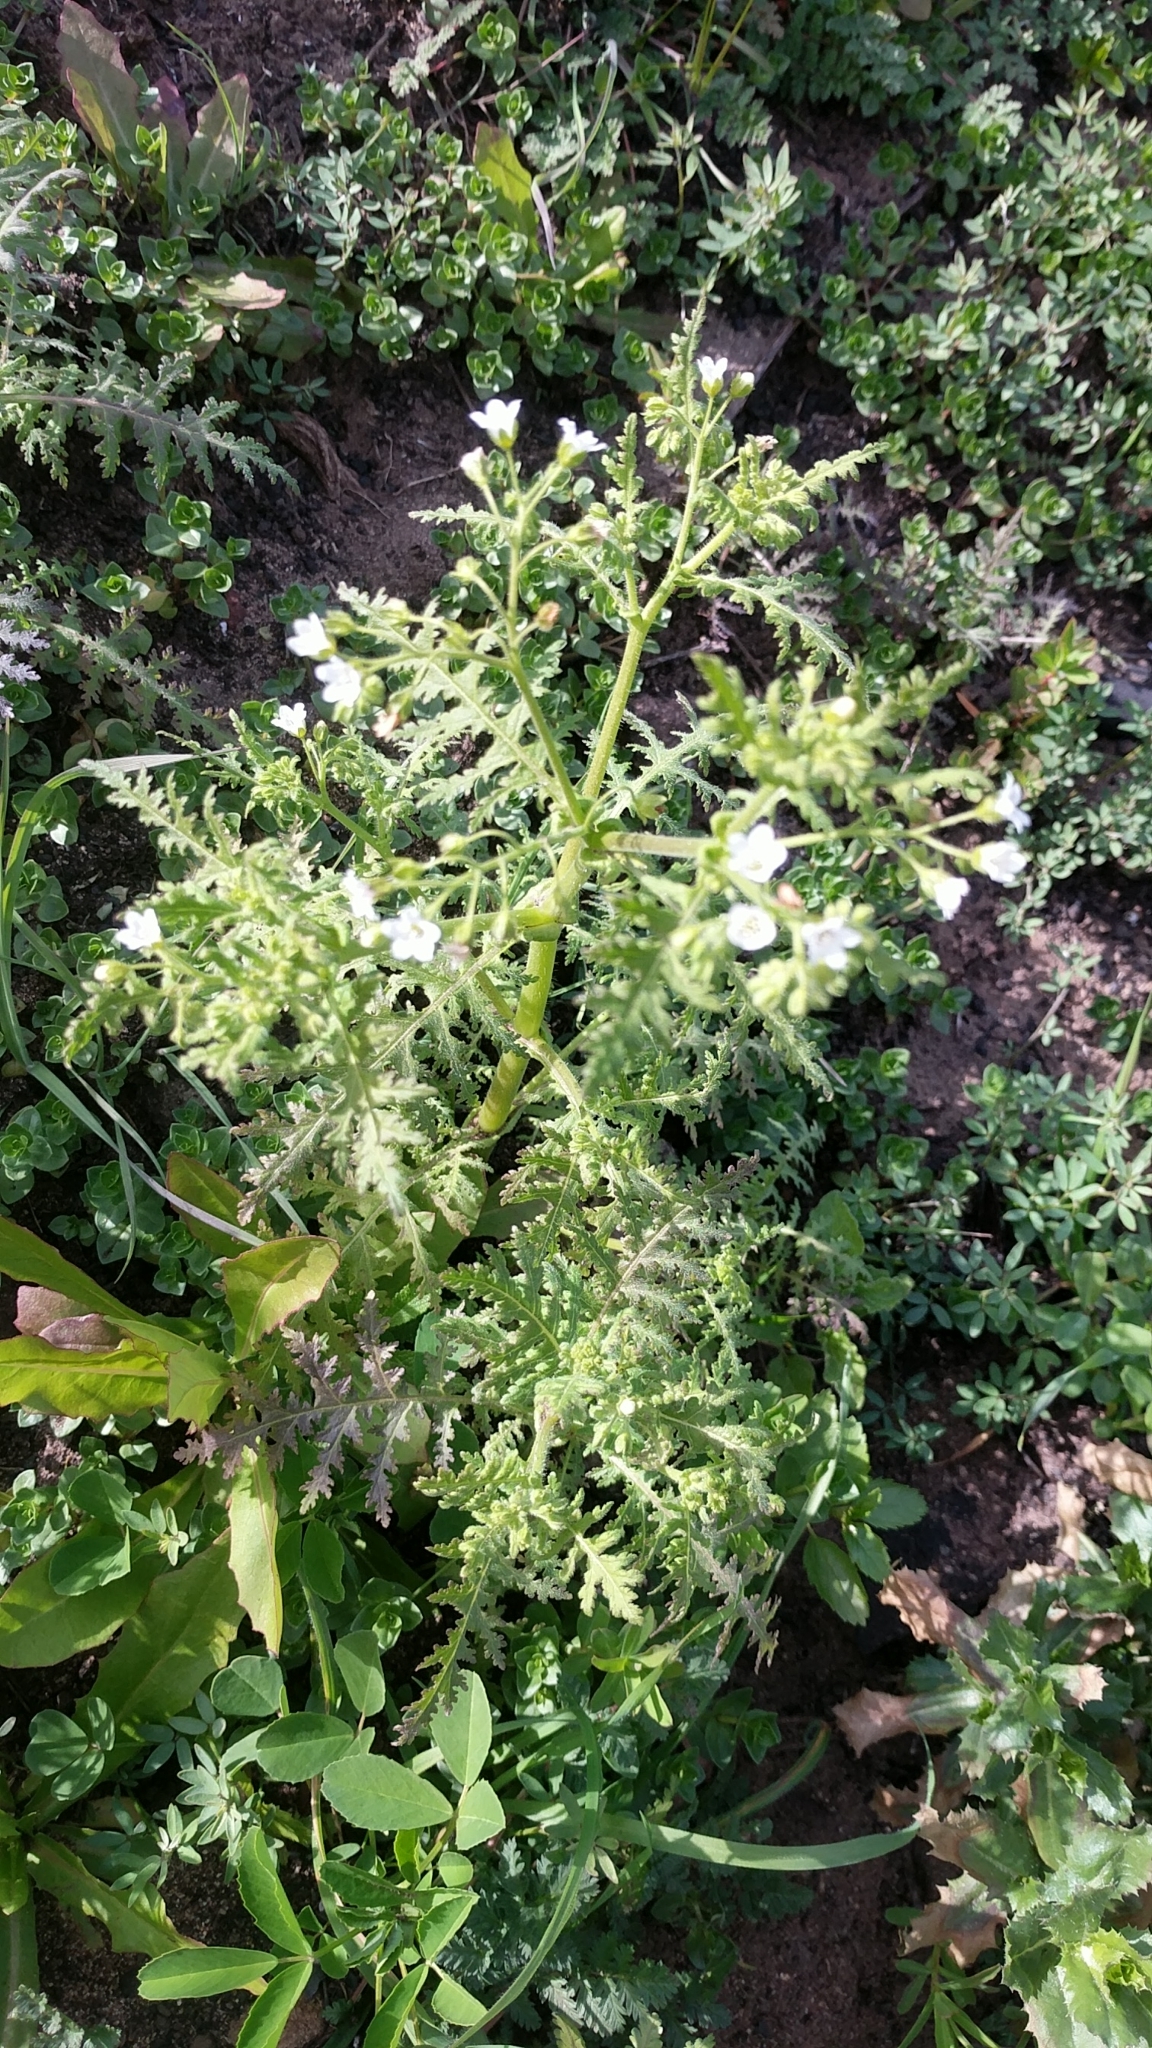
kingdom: Plantae
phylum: Tracheophyta
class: Magnoliopsida
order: Boraginales
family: Hydrophyllaceae
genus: Eucrypta
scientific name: Eucrypta chrysanthemifolia
